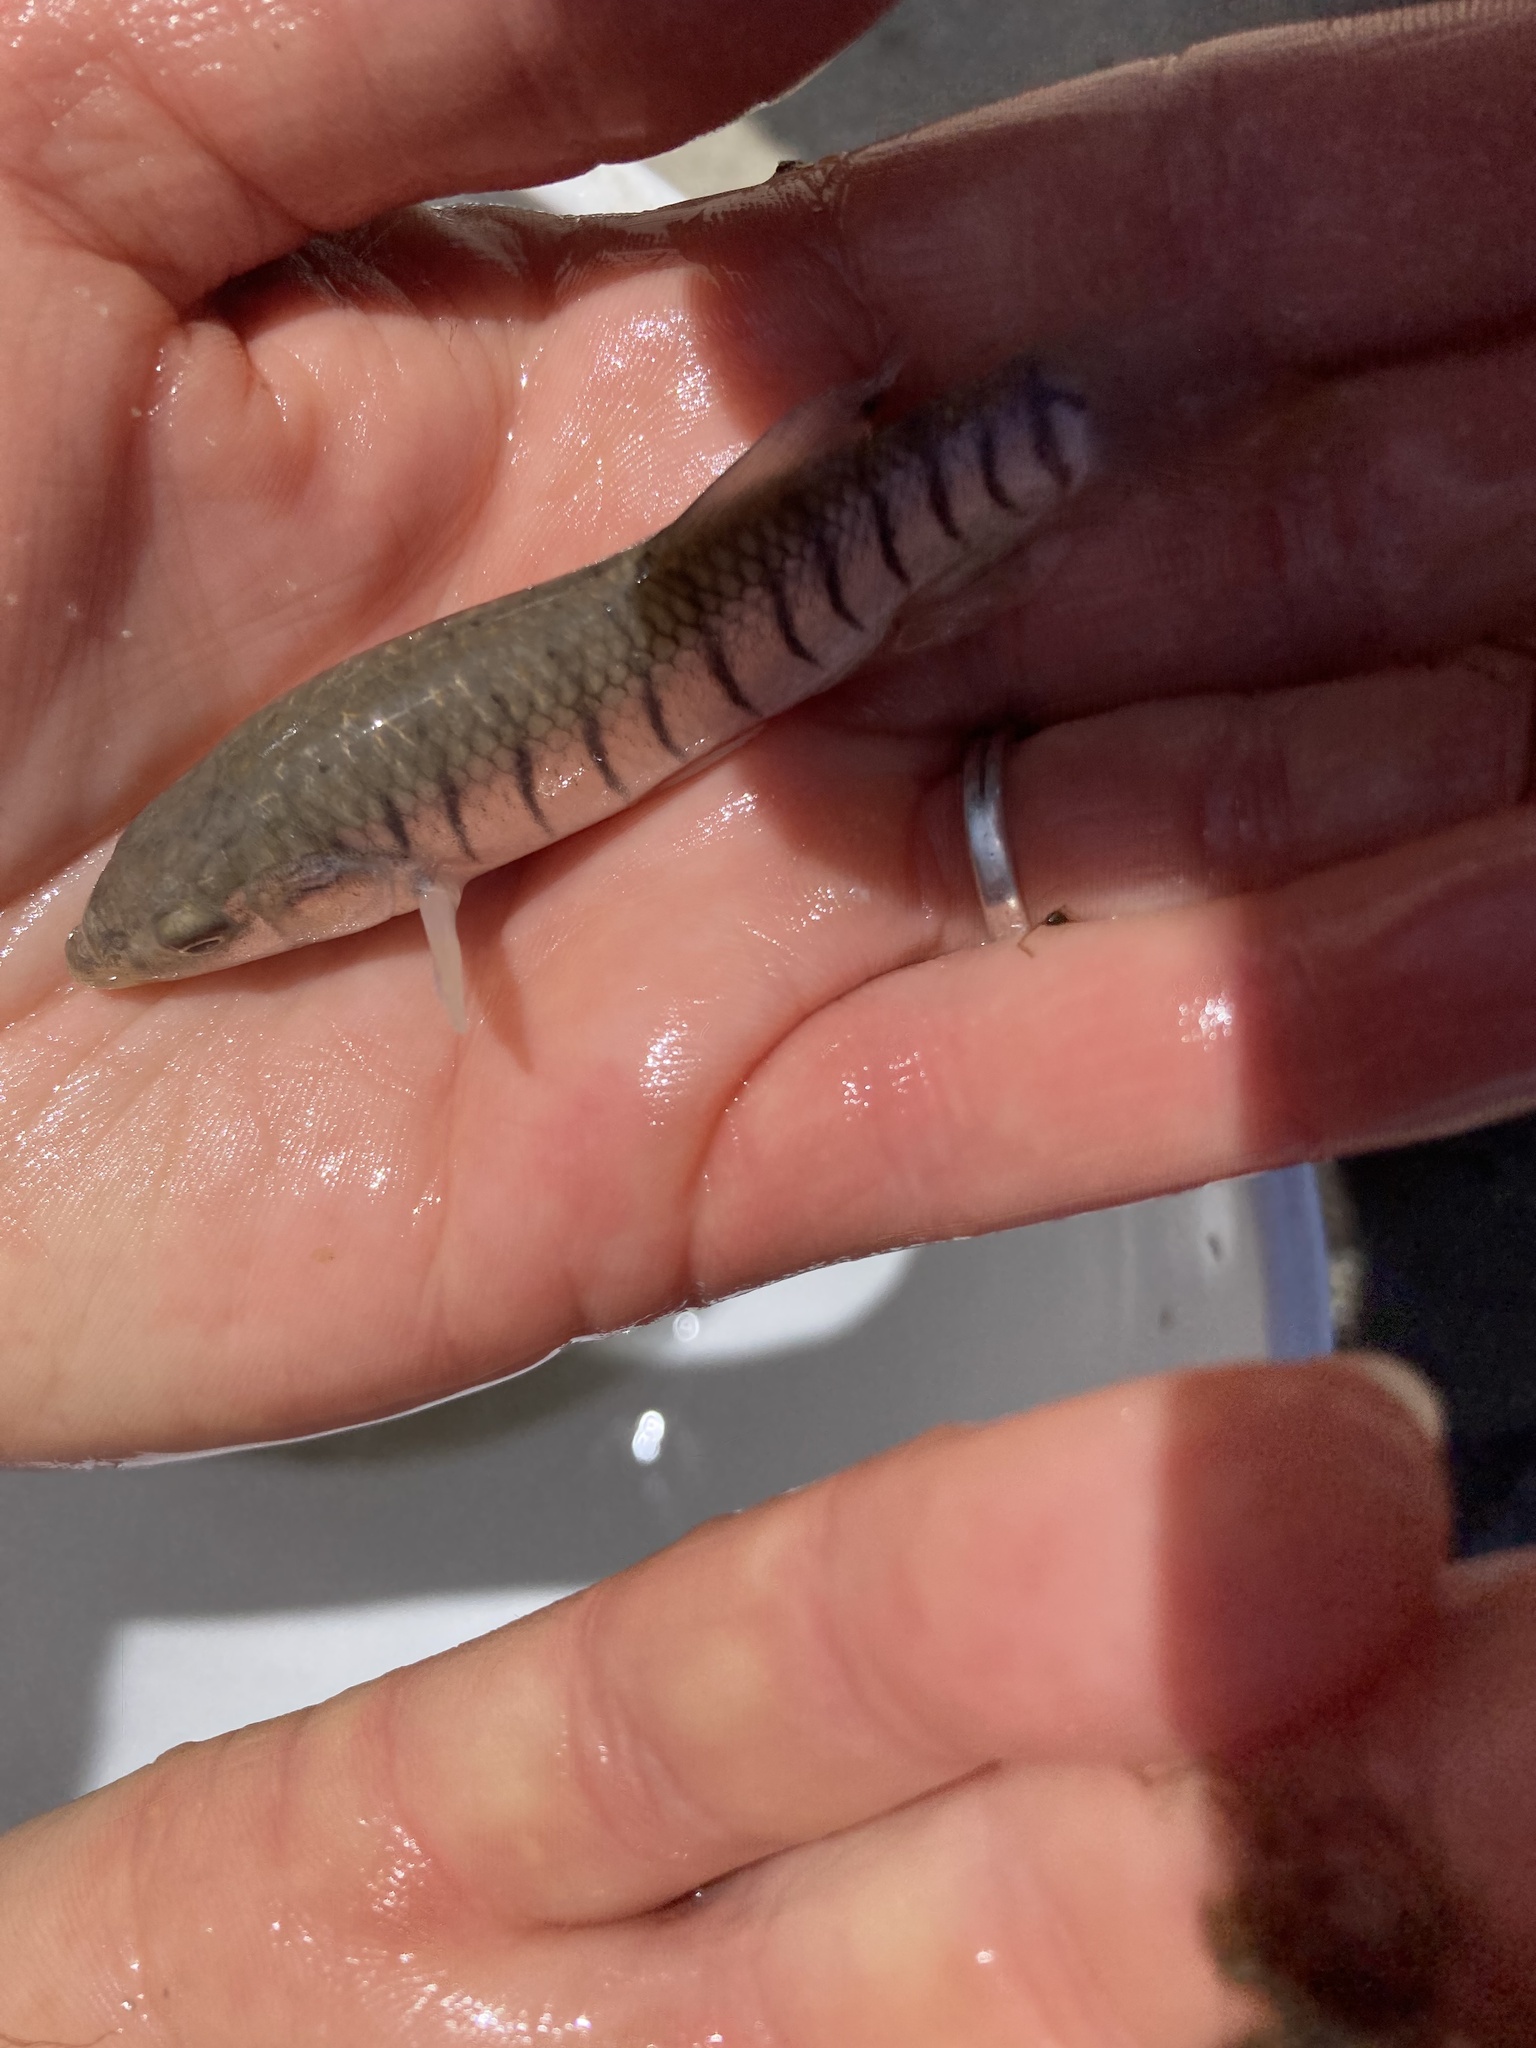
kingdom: Animalia
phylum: Chordata
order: Cyprinodontiformes
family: Fundulidae
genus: Fundulus
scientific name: Fundulus majalis
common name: Striped killifish
